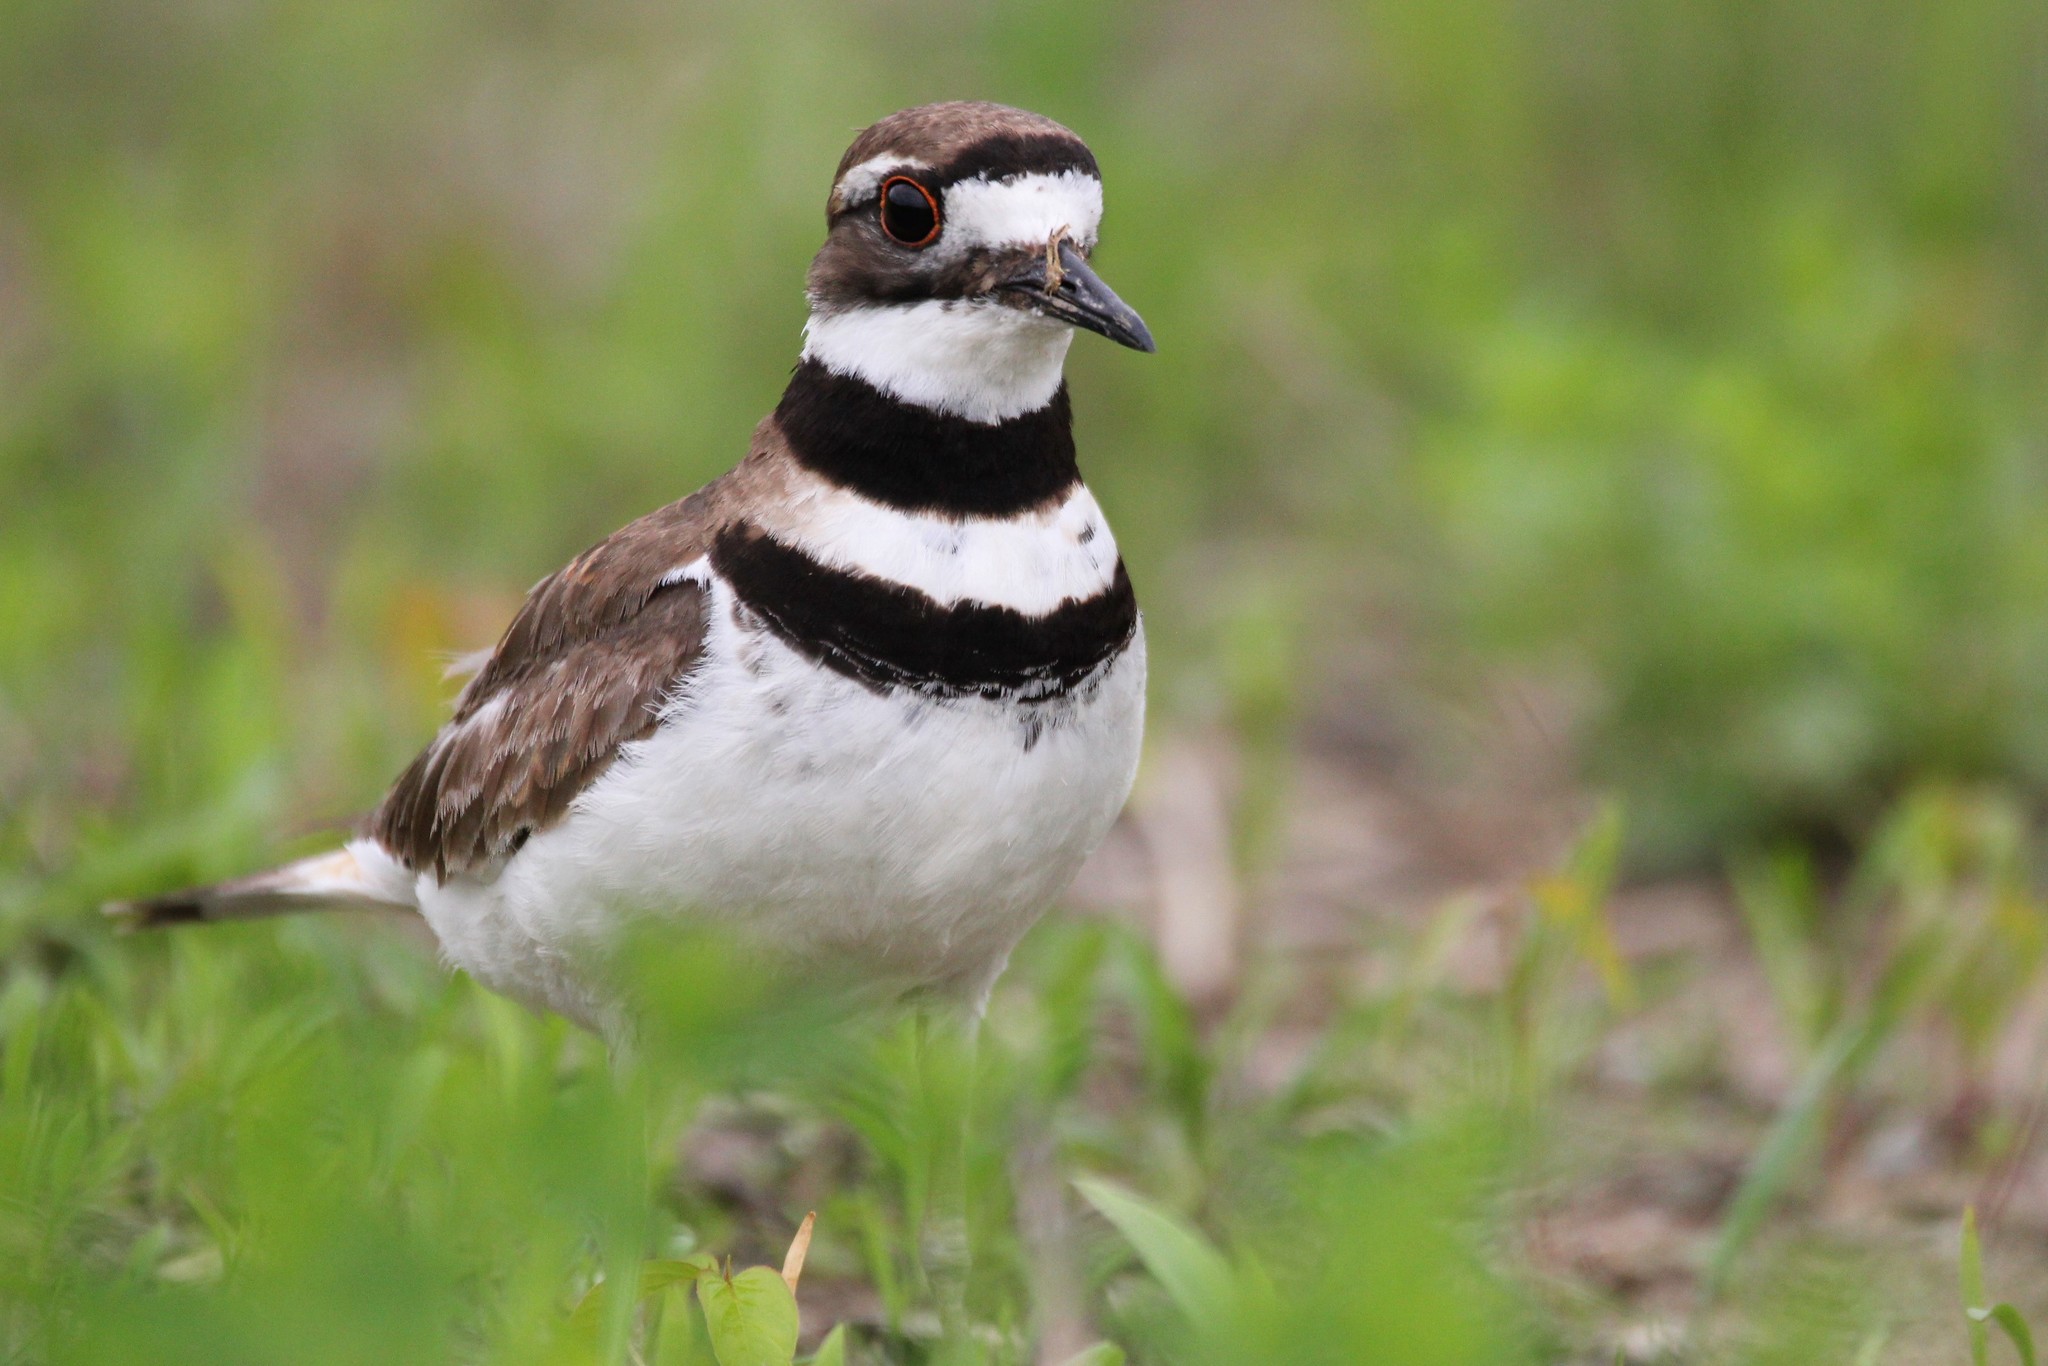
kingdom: Animalia
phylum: Chordata
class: Aves
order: Charadriiformes
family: Charadriidae
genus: Charadrius
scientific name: Charadrius vociferus
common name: Killdeer
